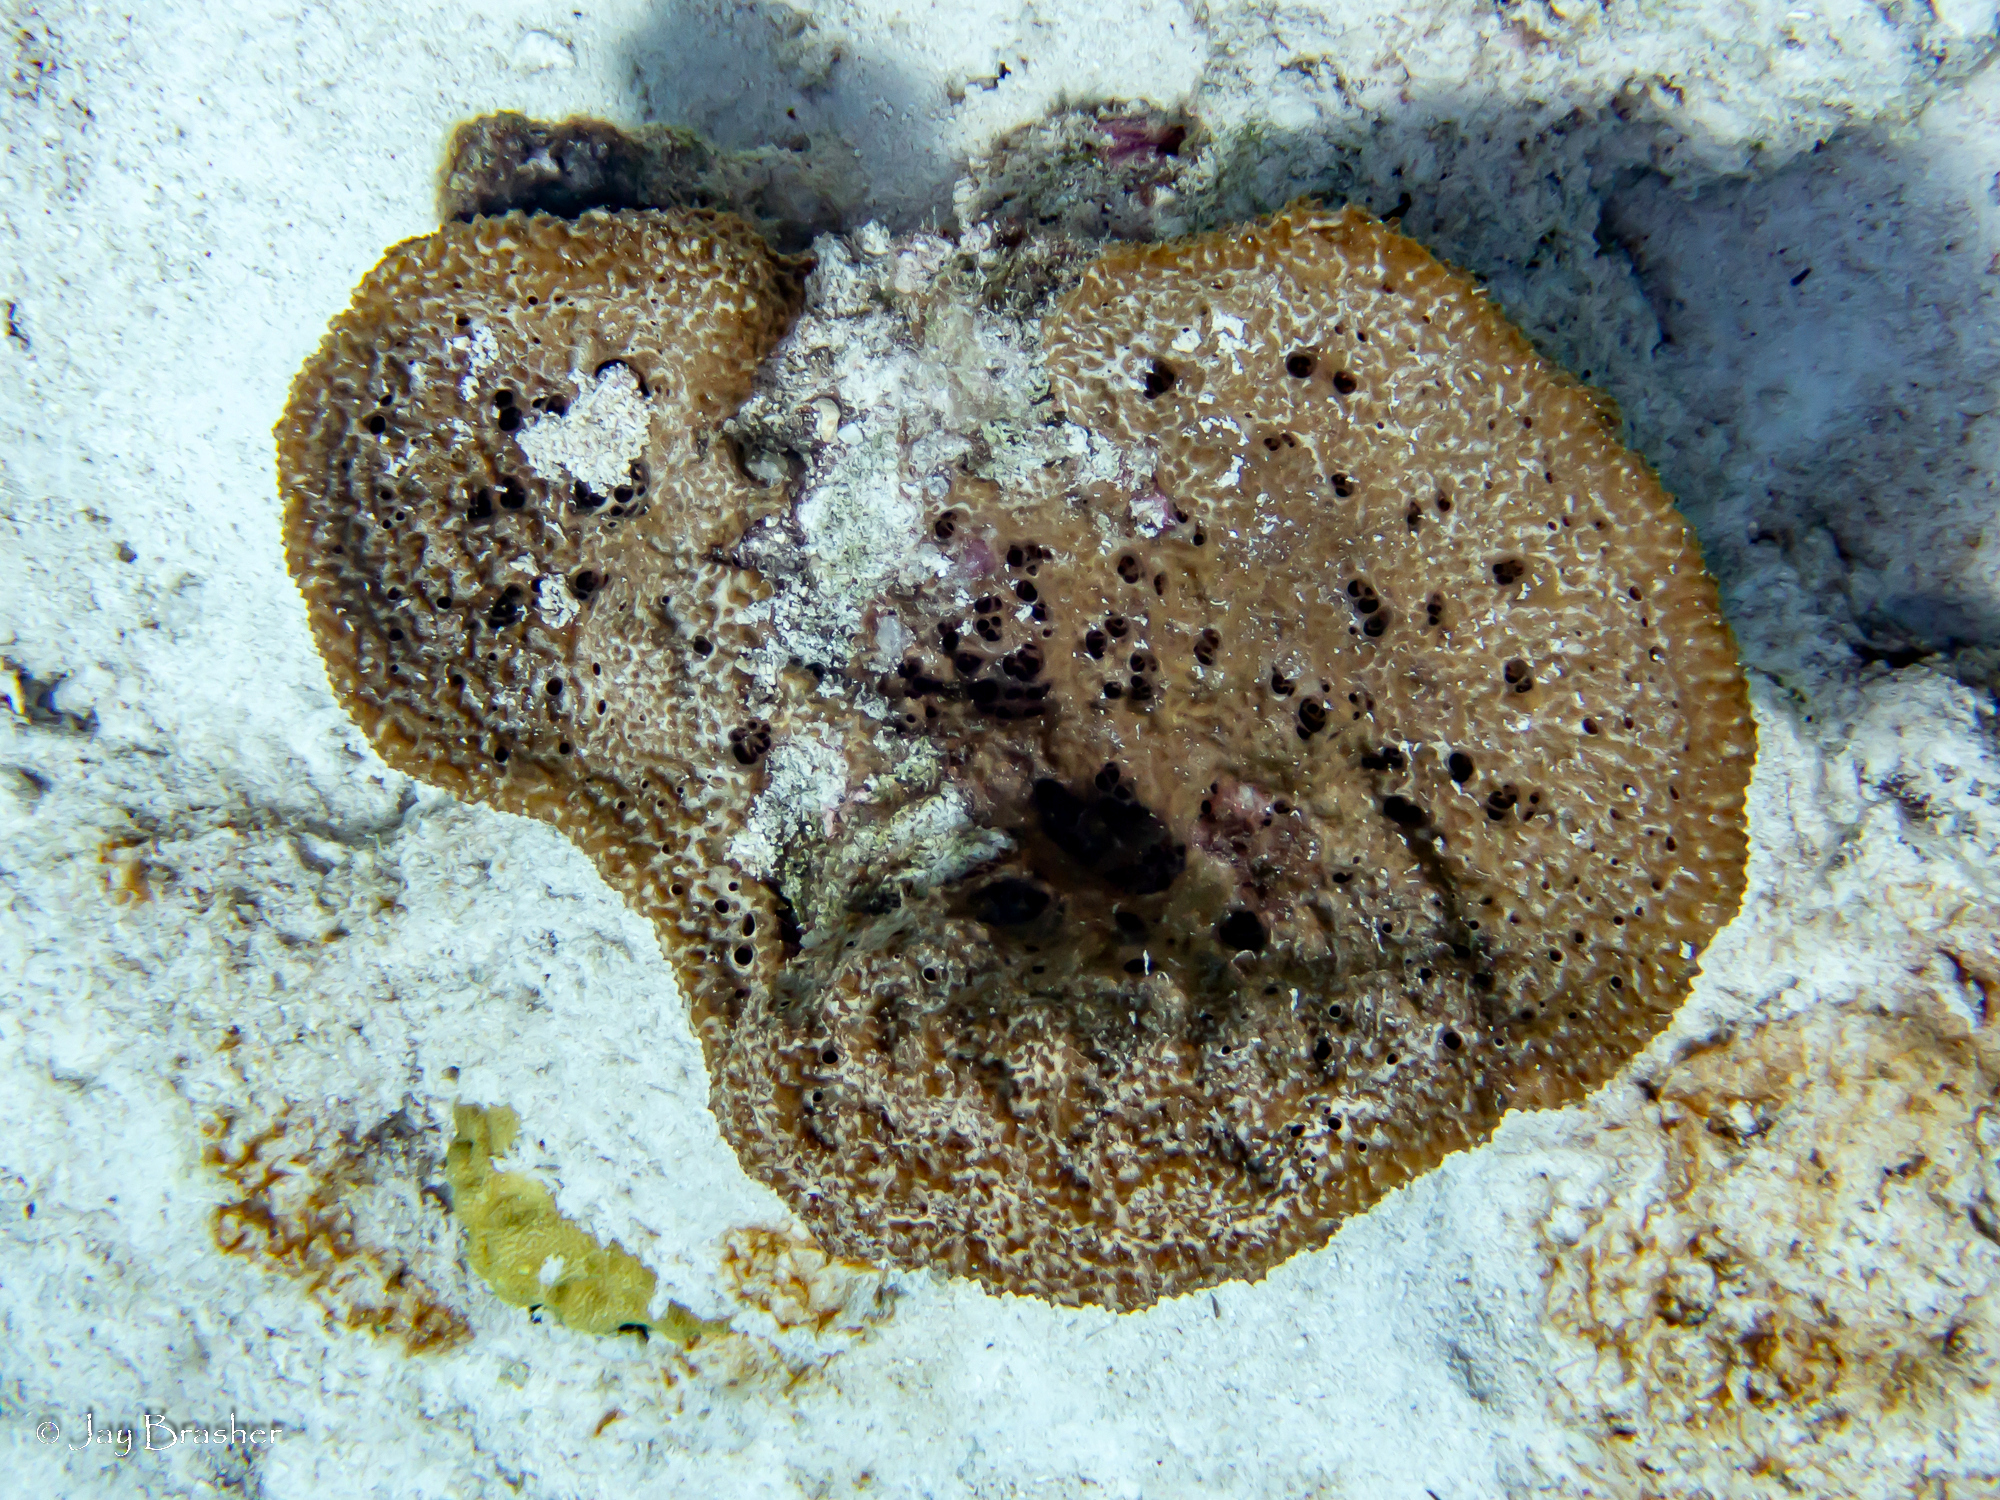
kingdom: Animalia
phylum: Porifera
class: Demospongiae
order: Dictyoceratida
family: Irciniidae
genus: Ircinia
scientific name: Ircinia campana
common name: Vase sponge
